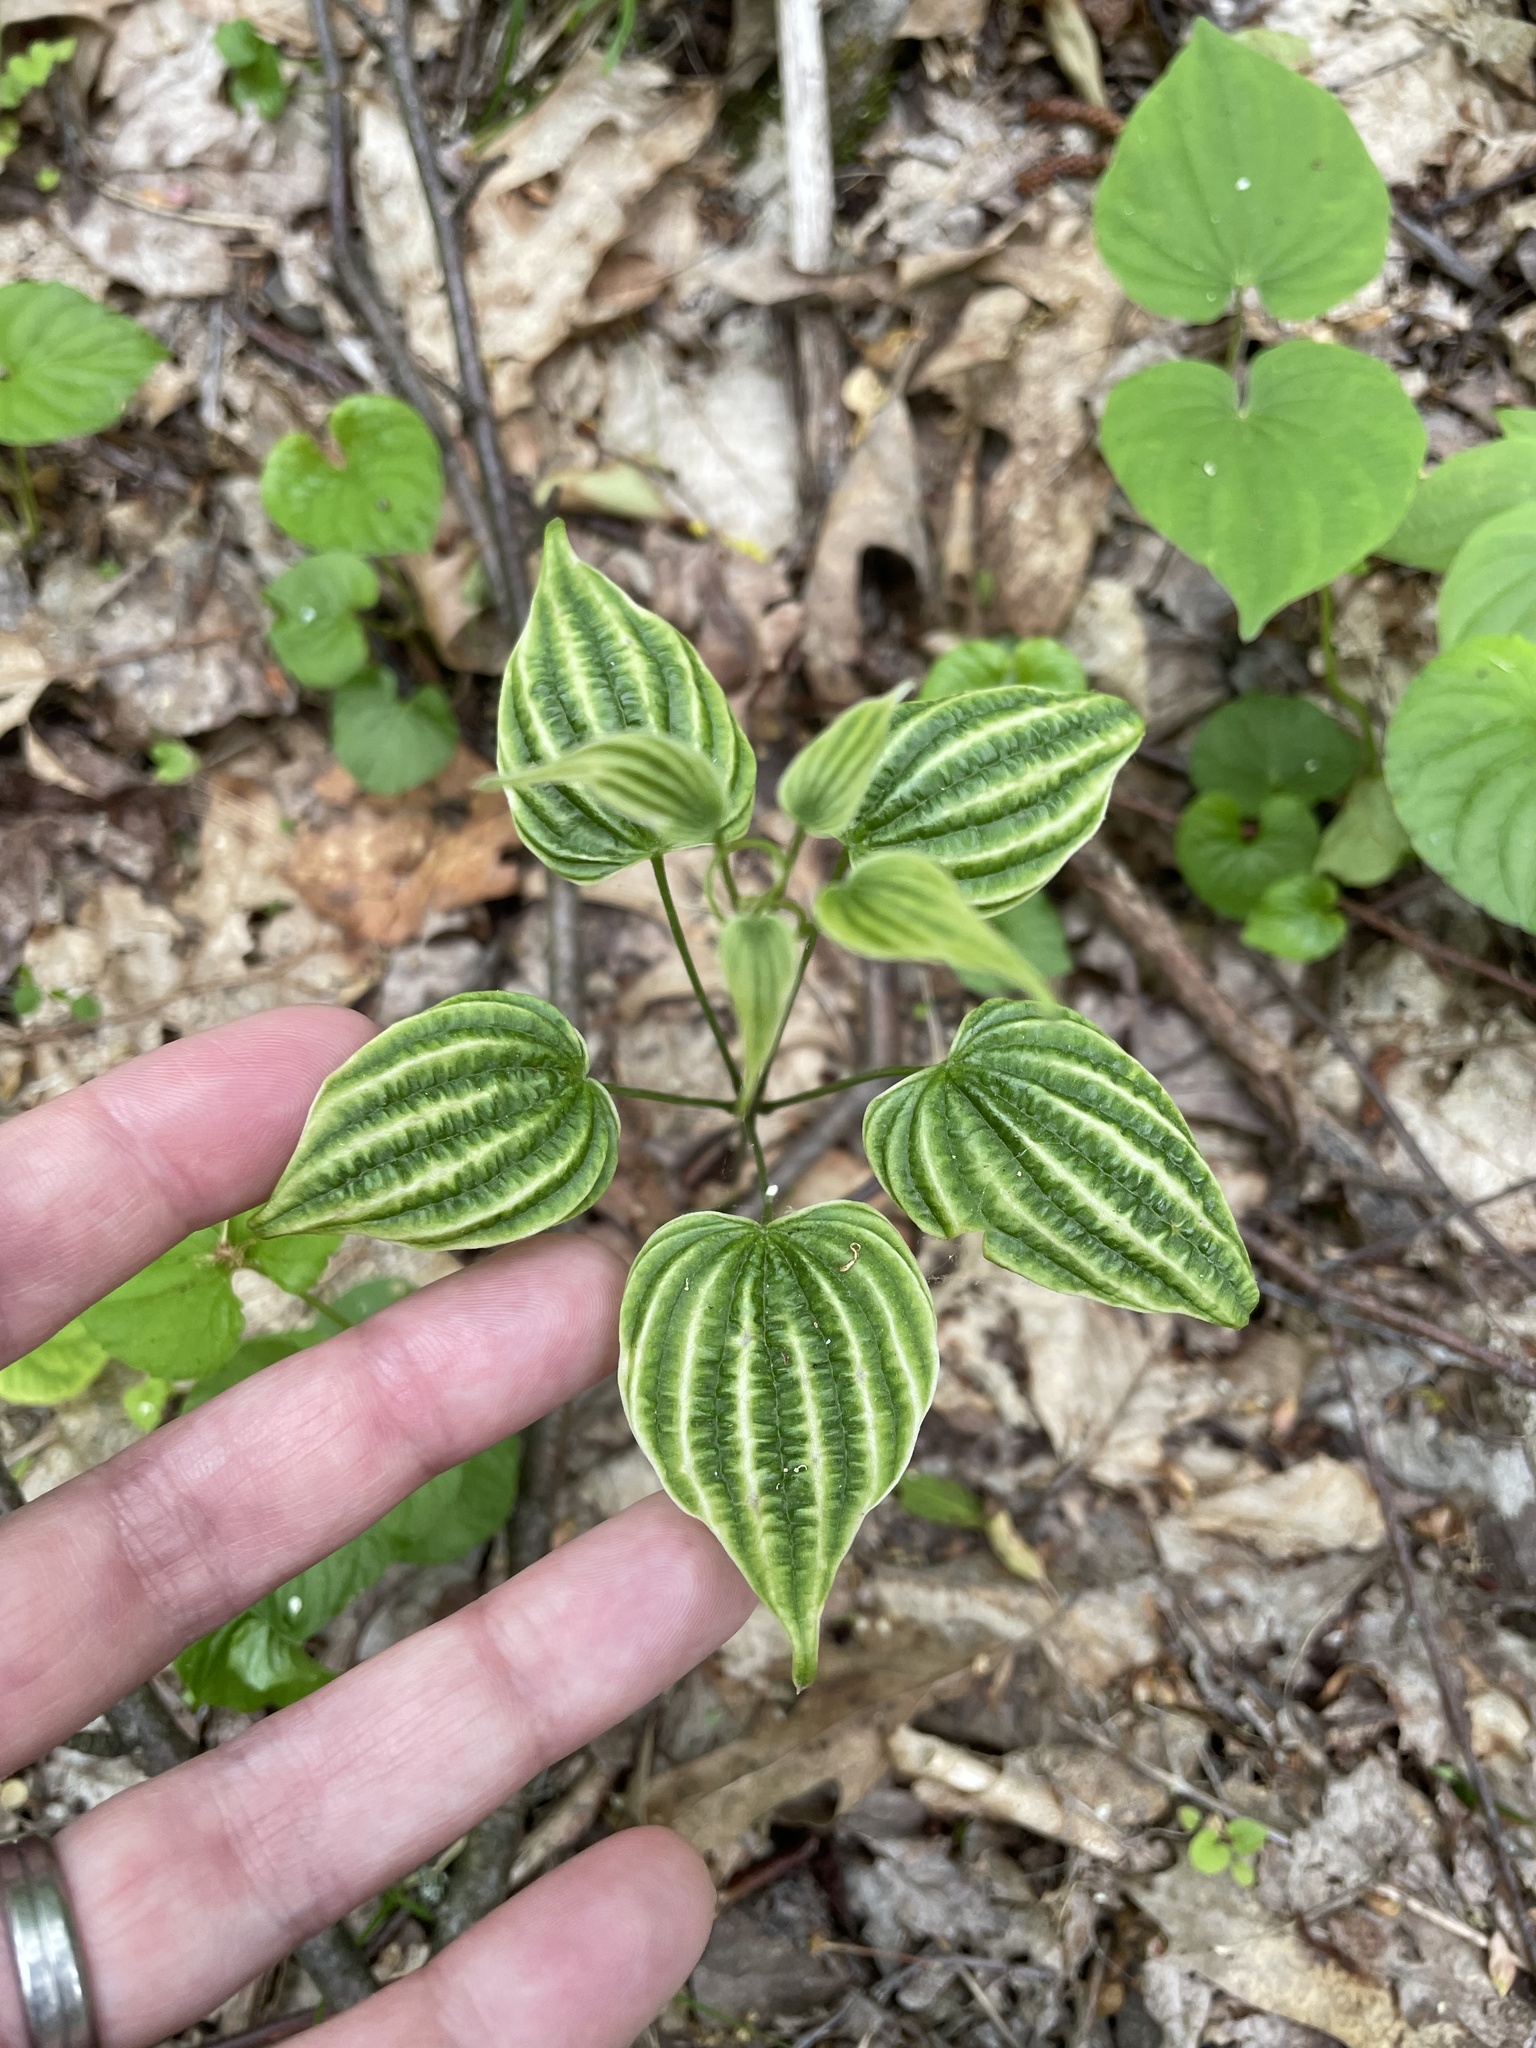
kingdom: Plantae
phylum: Tracheophyta
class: Liliopsida
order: Dioscoreales
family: Dioscoreaceae
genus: Dioscorea
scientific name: Dioscorea villosa
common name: Wild yam
